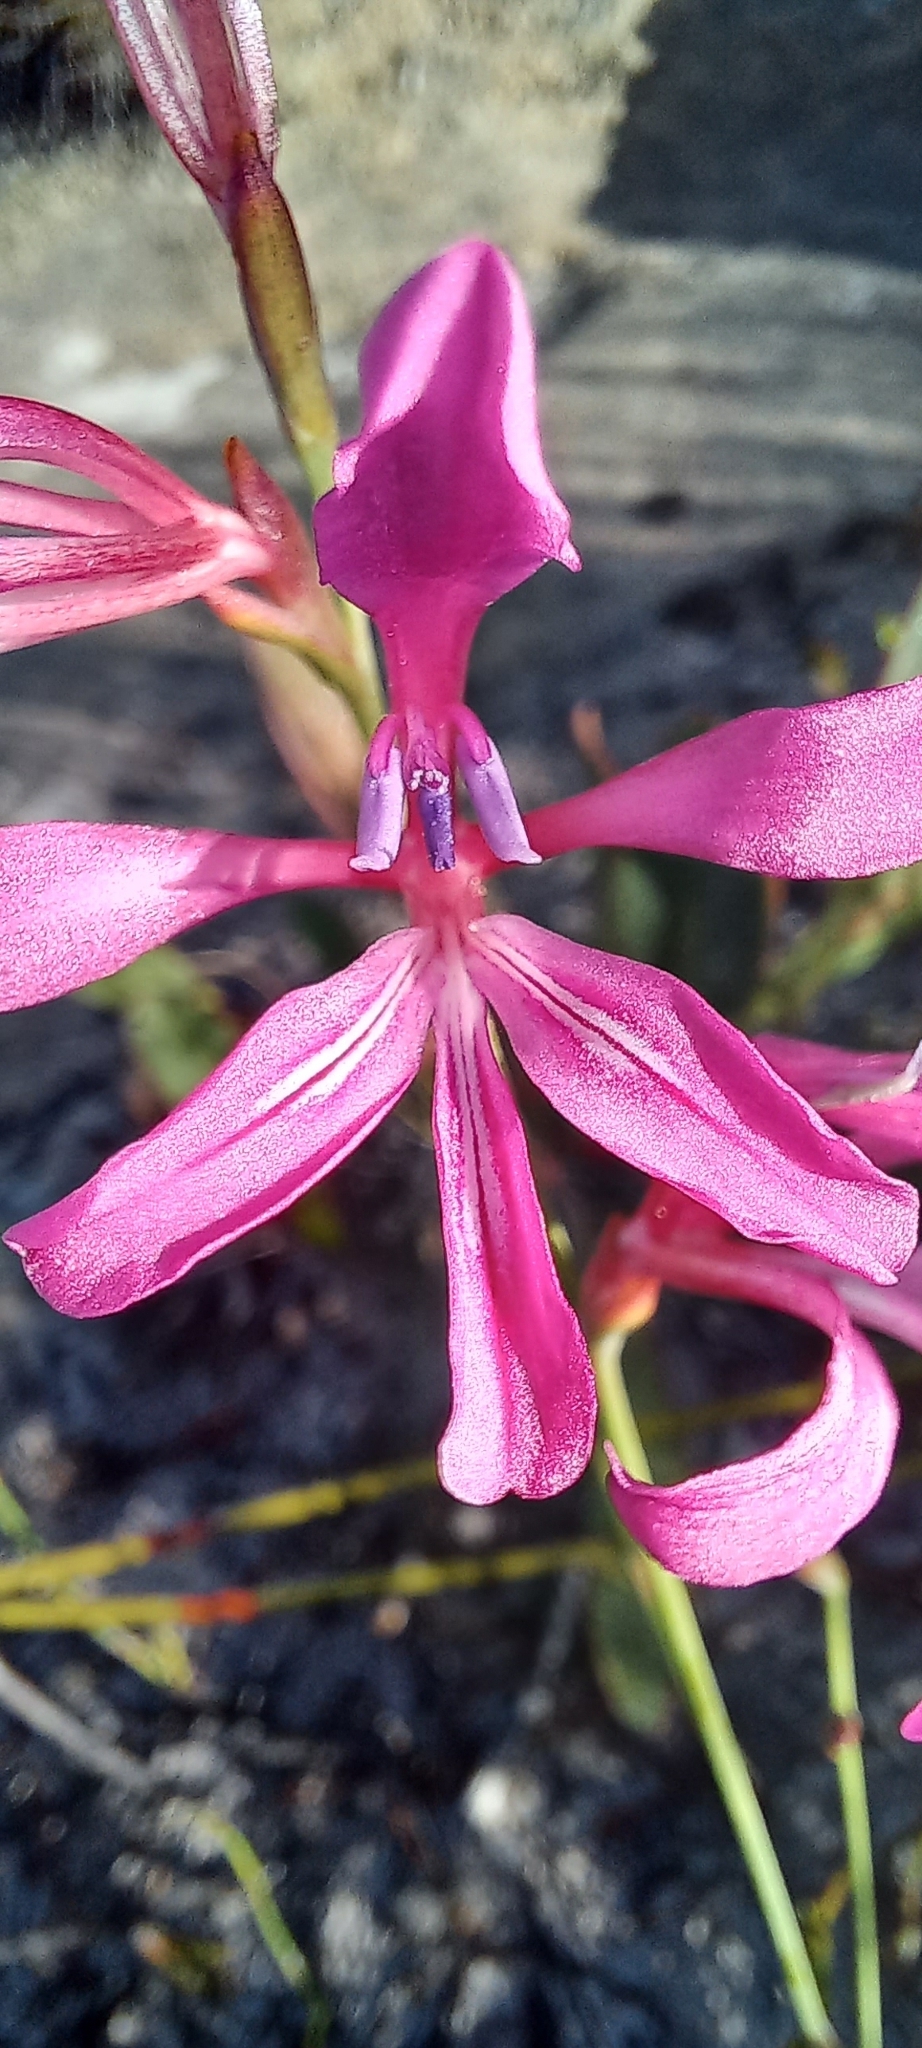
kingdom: Plantae
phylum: Tracheophyta
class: Liliopsida
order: Asparagales
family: Iridaceae
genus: Tritoniopsis
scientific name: Tritoniopsis ramosa
